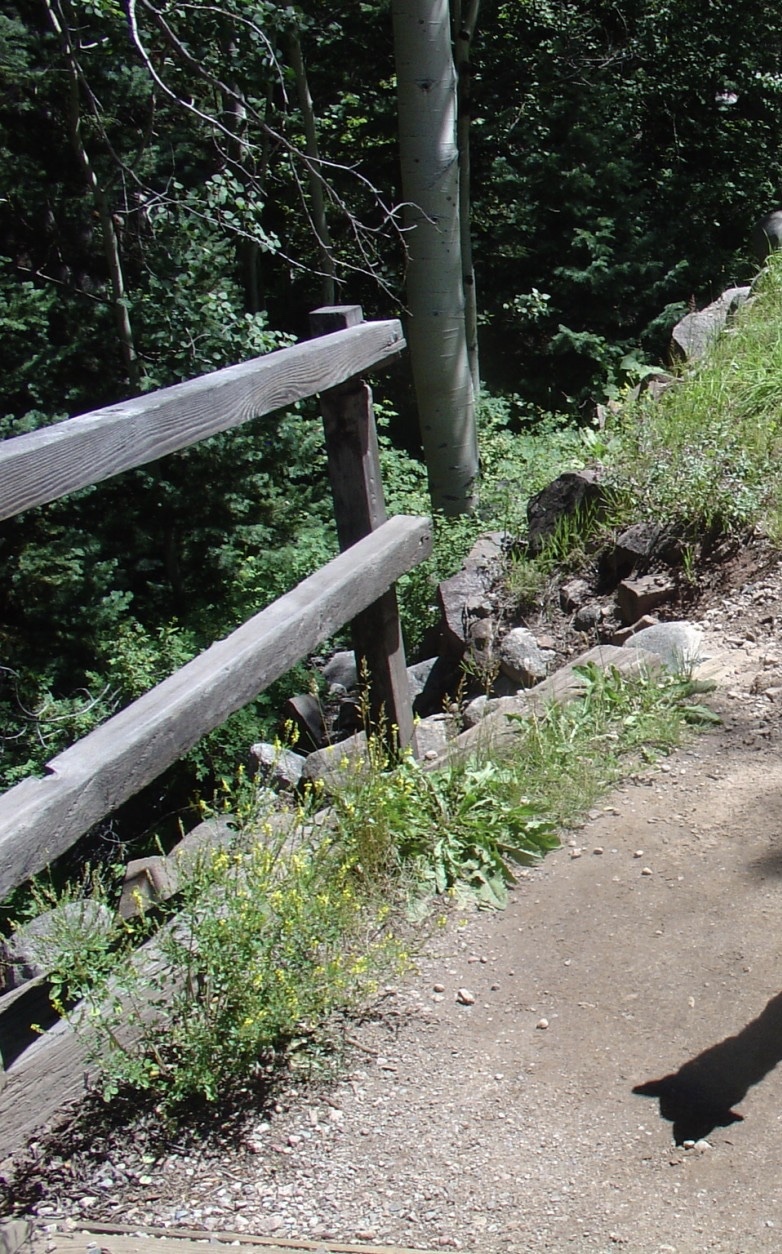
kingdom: Plantae
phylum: Tracheophyta
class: Magnoliopsida
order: Fabales
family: Fabaceae
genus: Melilotus
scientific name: Melilotus officinalis
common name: Sweetclover
